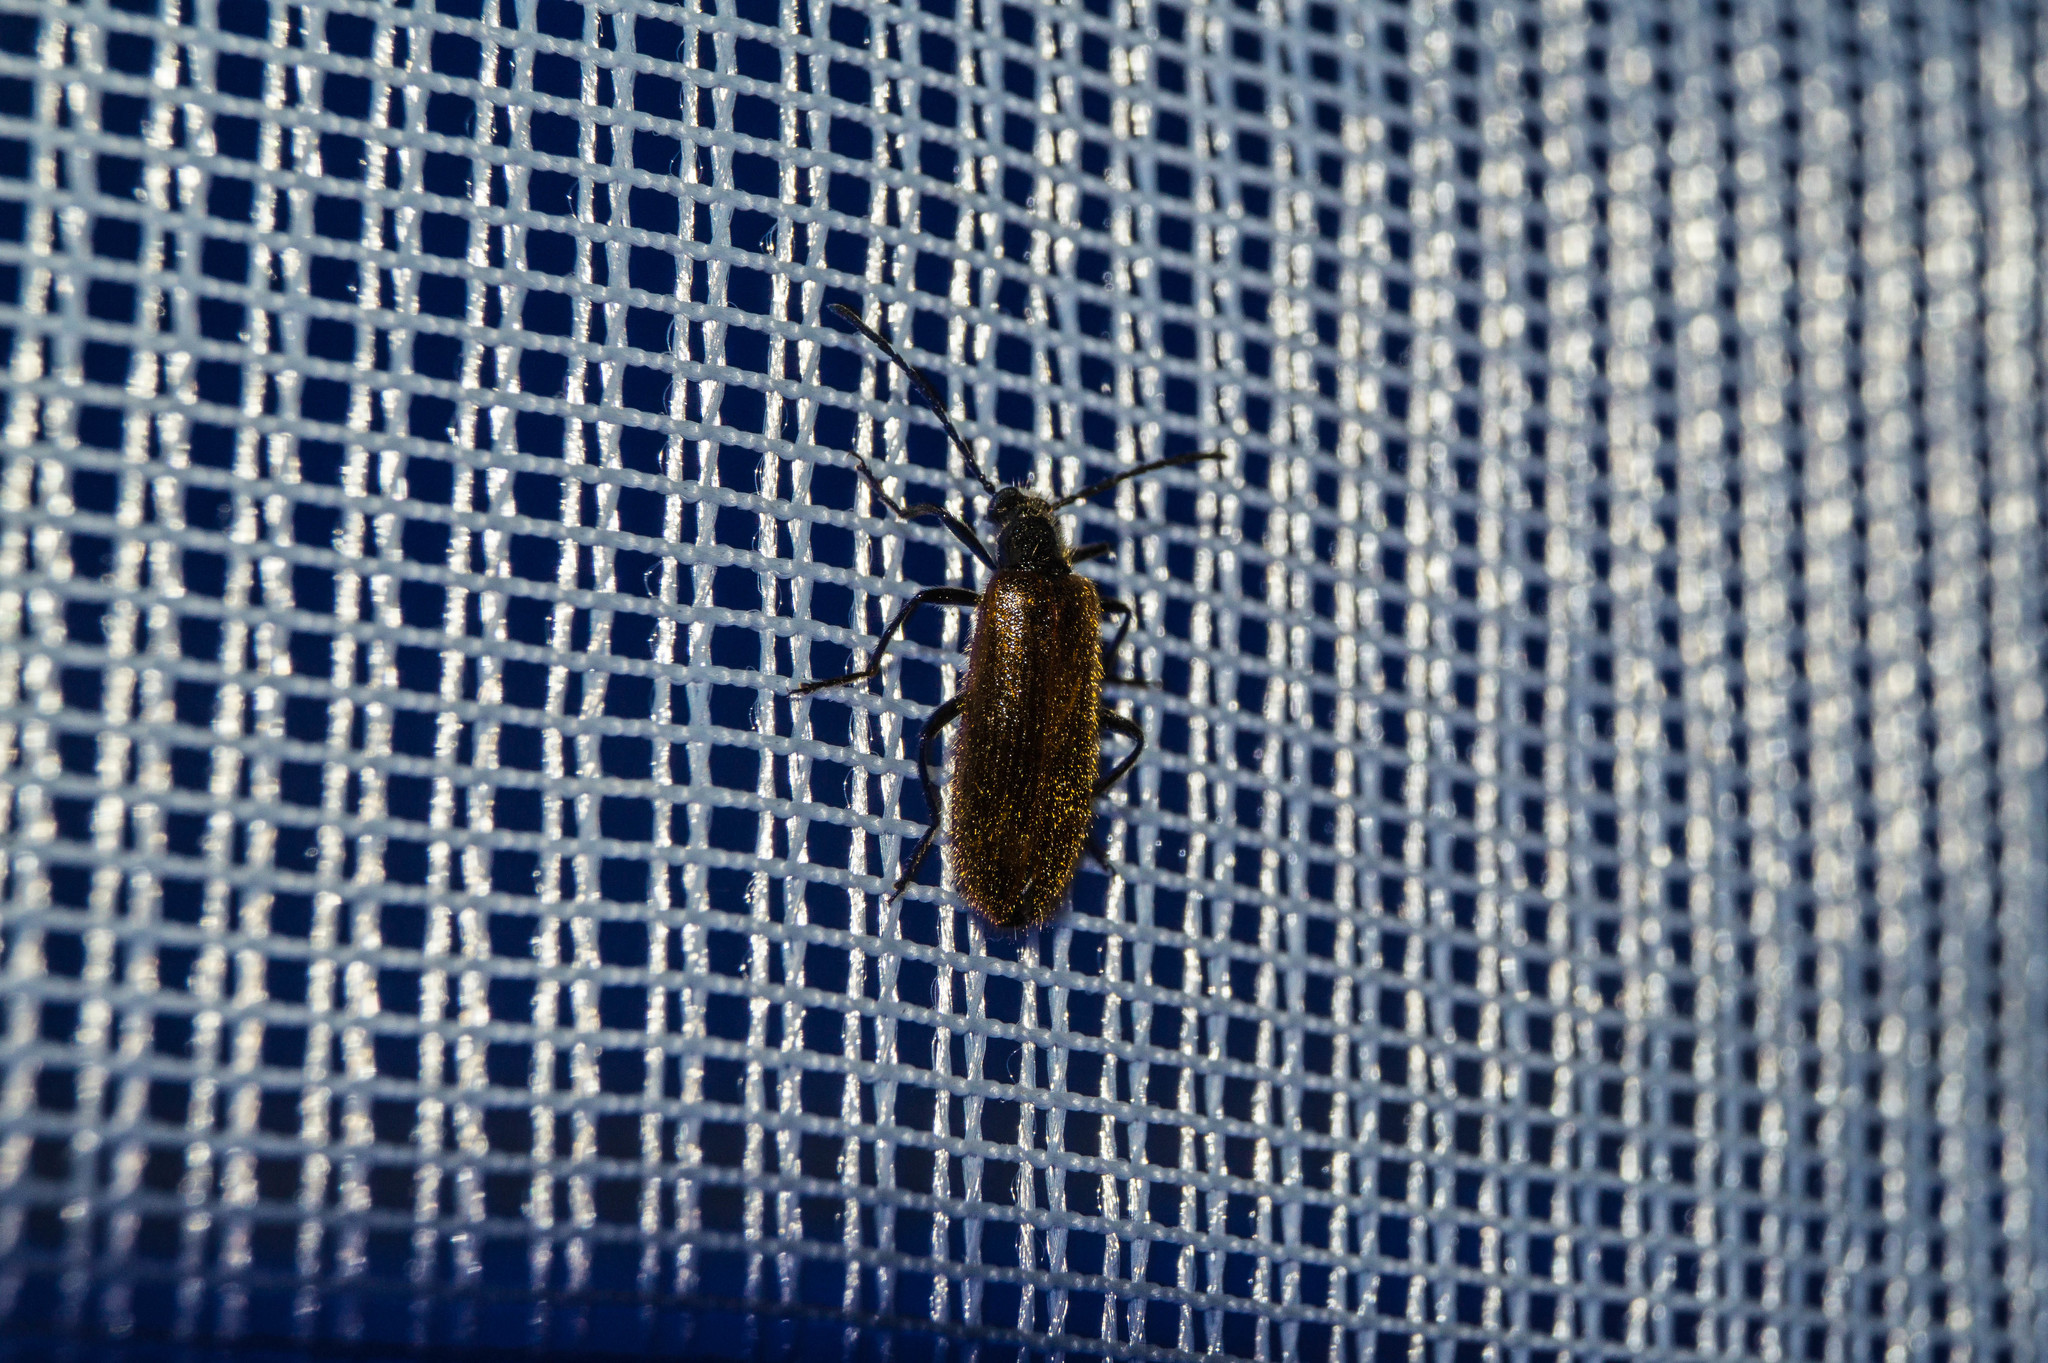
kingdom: Animalia
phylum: Arthropoda
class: Insecta
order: Coleoptera
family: Tenebrionidae
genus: Lagria
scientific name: Lagria hirta
